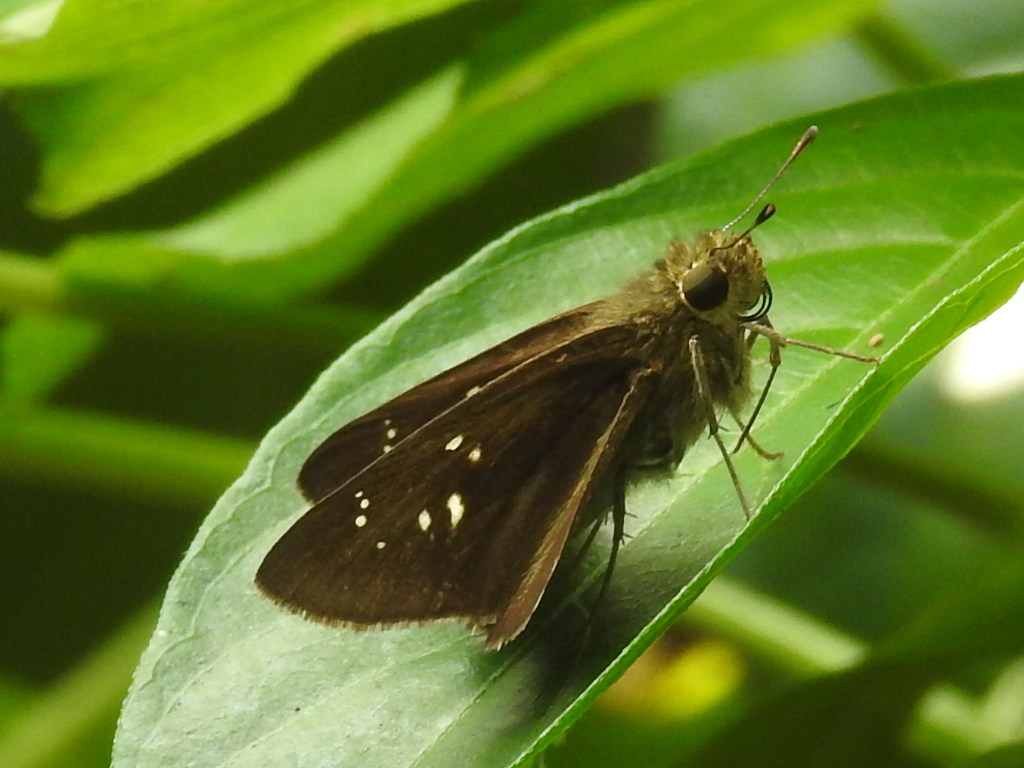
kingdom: Animalia
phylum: Arthropoda
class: Insecta
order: Lepidoptera
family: Hesperiidae
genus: Pelopidas
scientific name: Pelopidas mathias
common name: Black-branded swift
